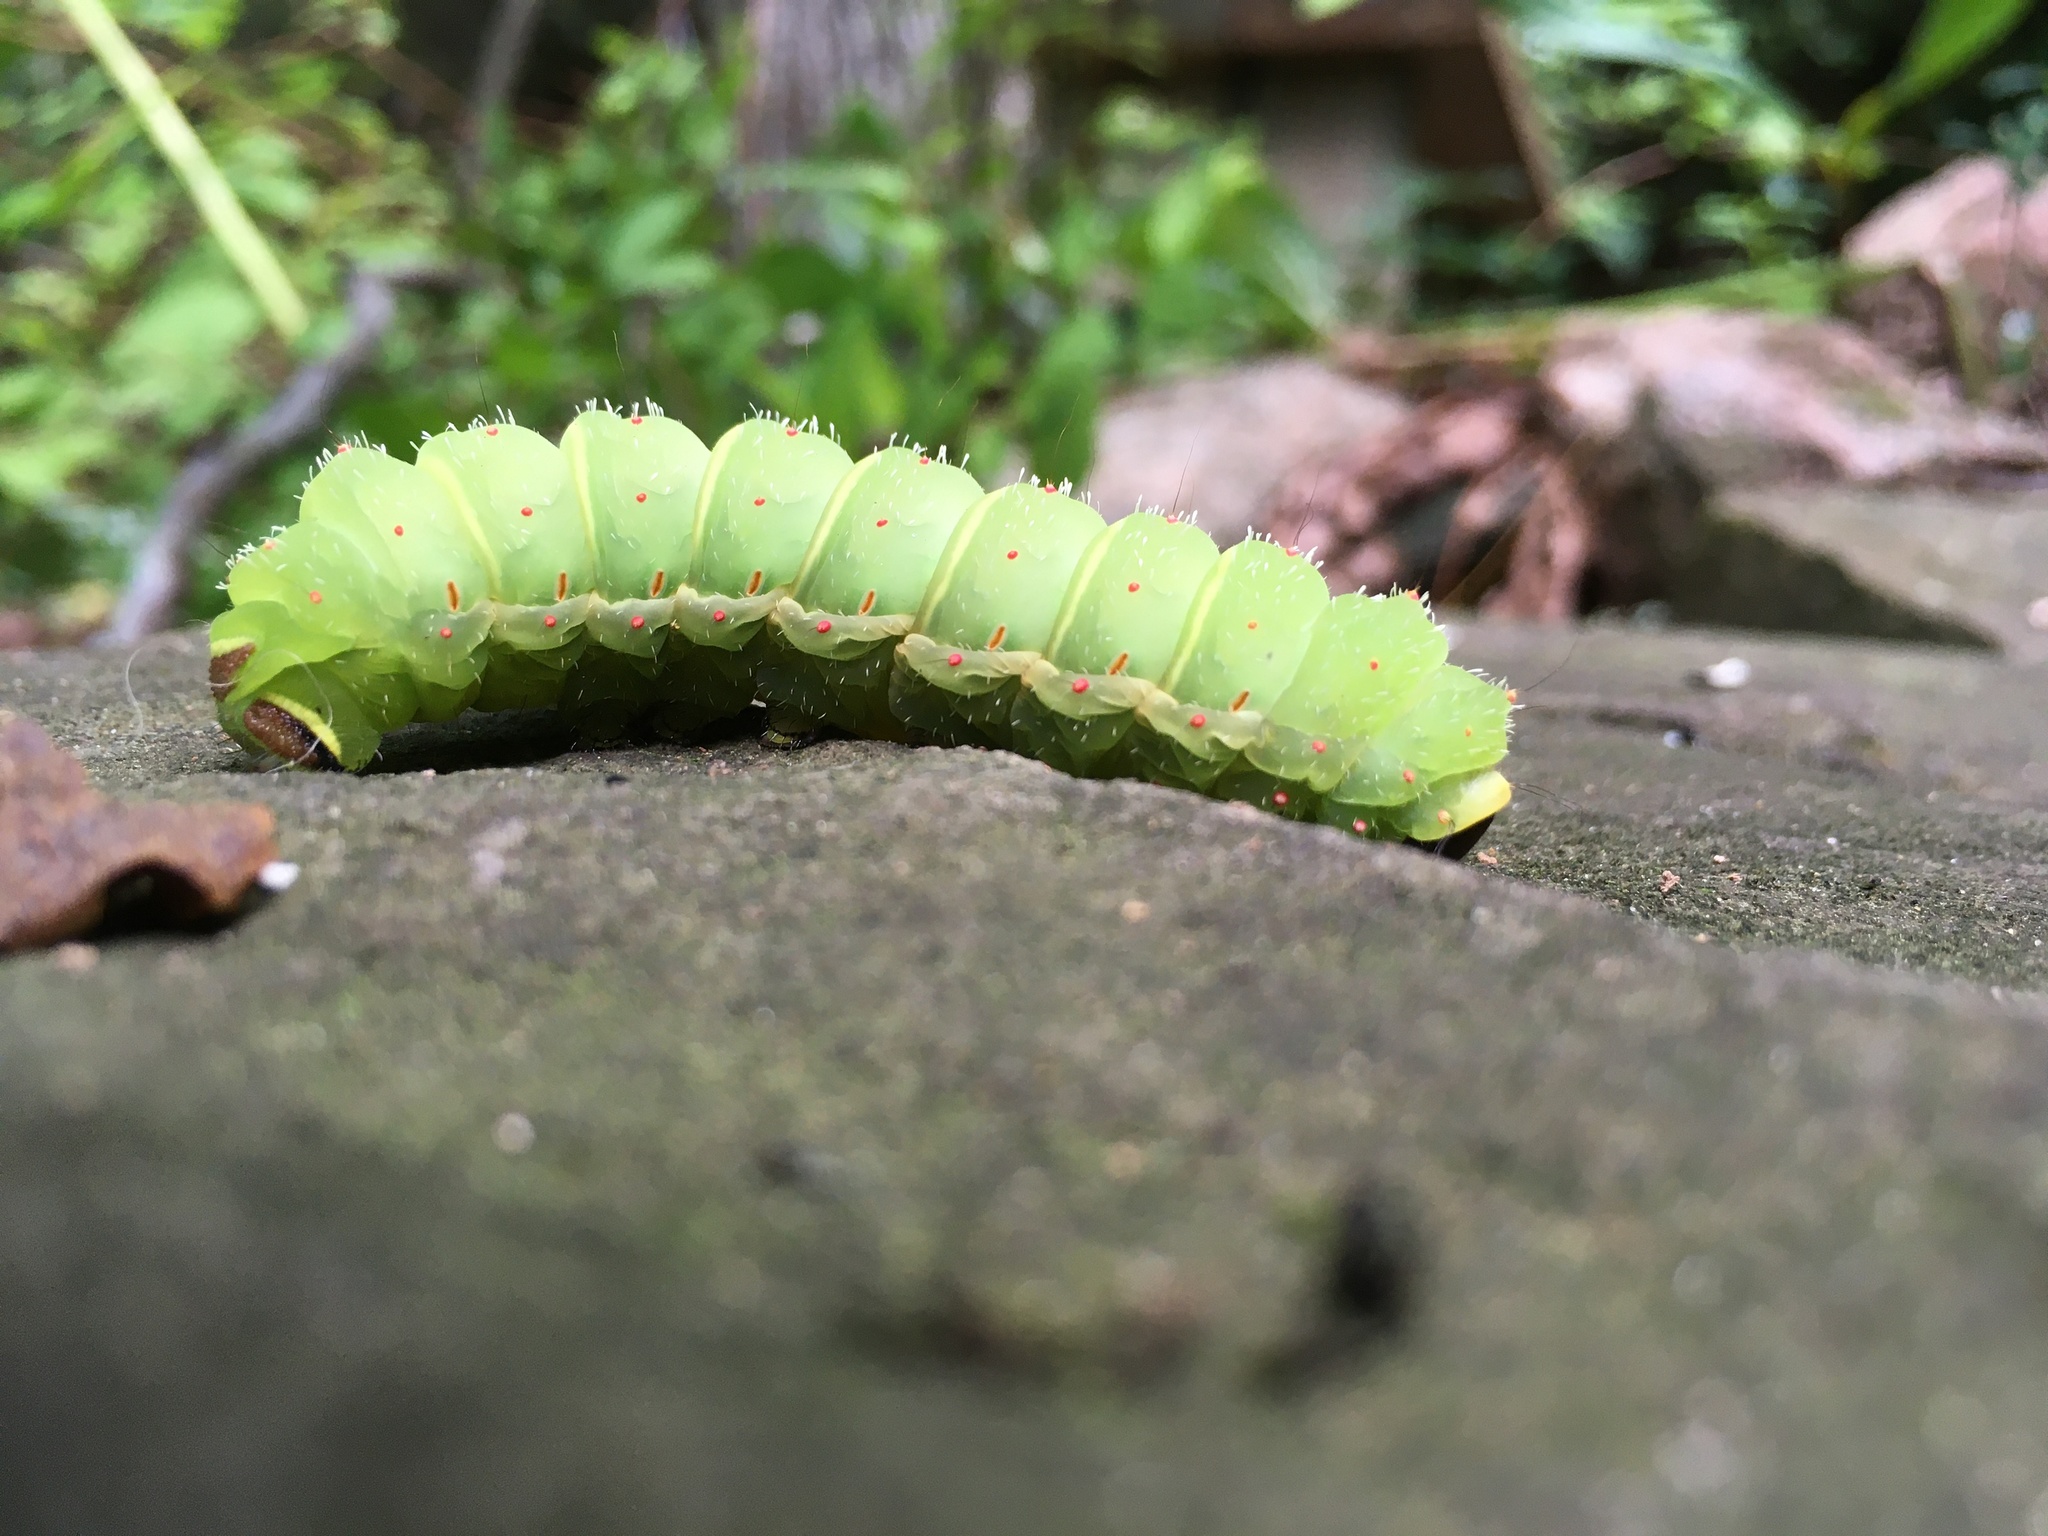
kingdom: Animalia
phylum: Arthropoda
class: Insecta
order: Lepidoptera
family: Saturniidae
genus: Actias
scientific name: Actias luna
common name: Luna moth
